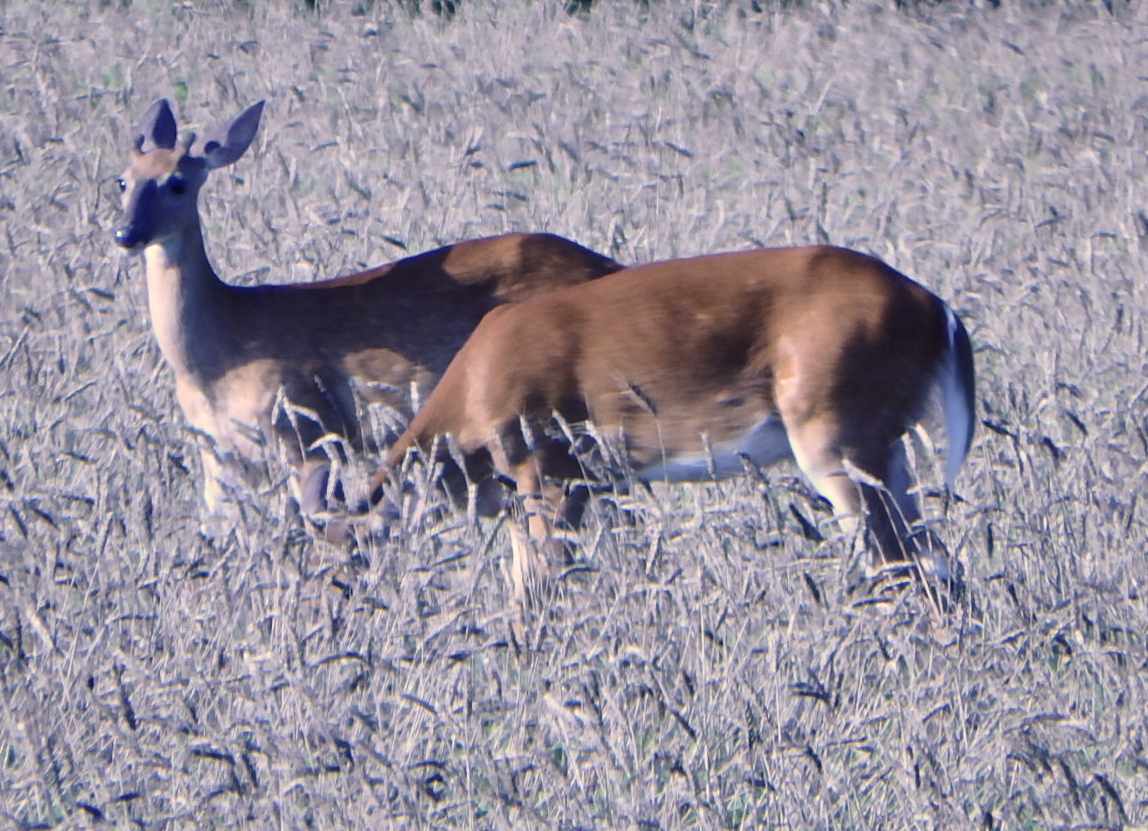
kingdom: Animalia
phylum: Chordata
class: Mammalia
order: Artiodactyla
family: Cervidae
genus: Odocoileus
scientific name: Odocoileus virginianus
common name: White-tailed deer
